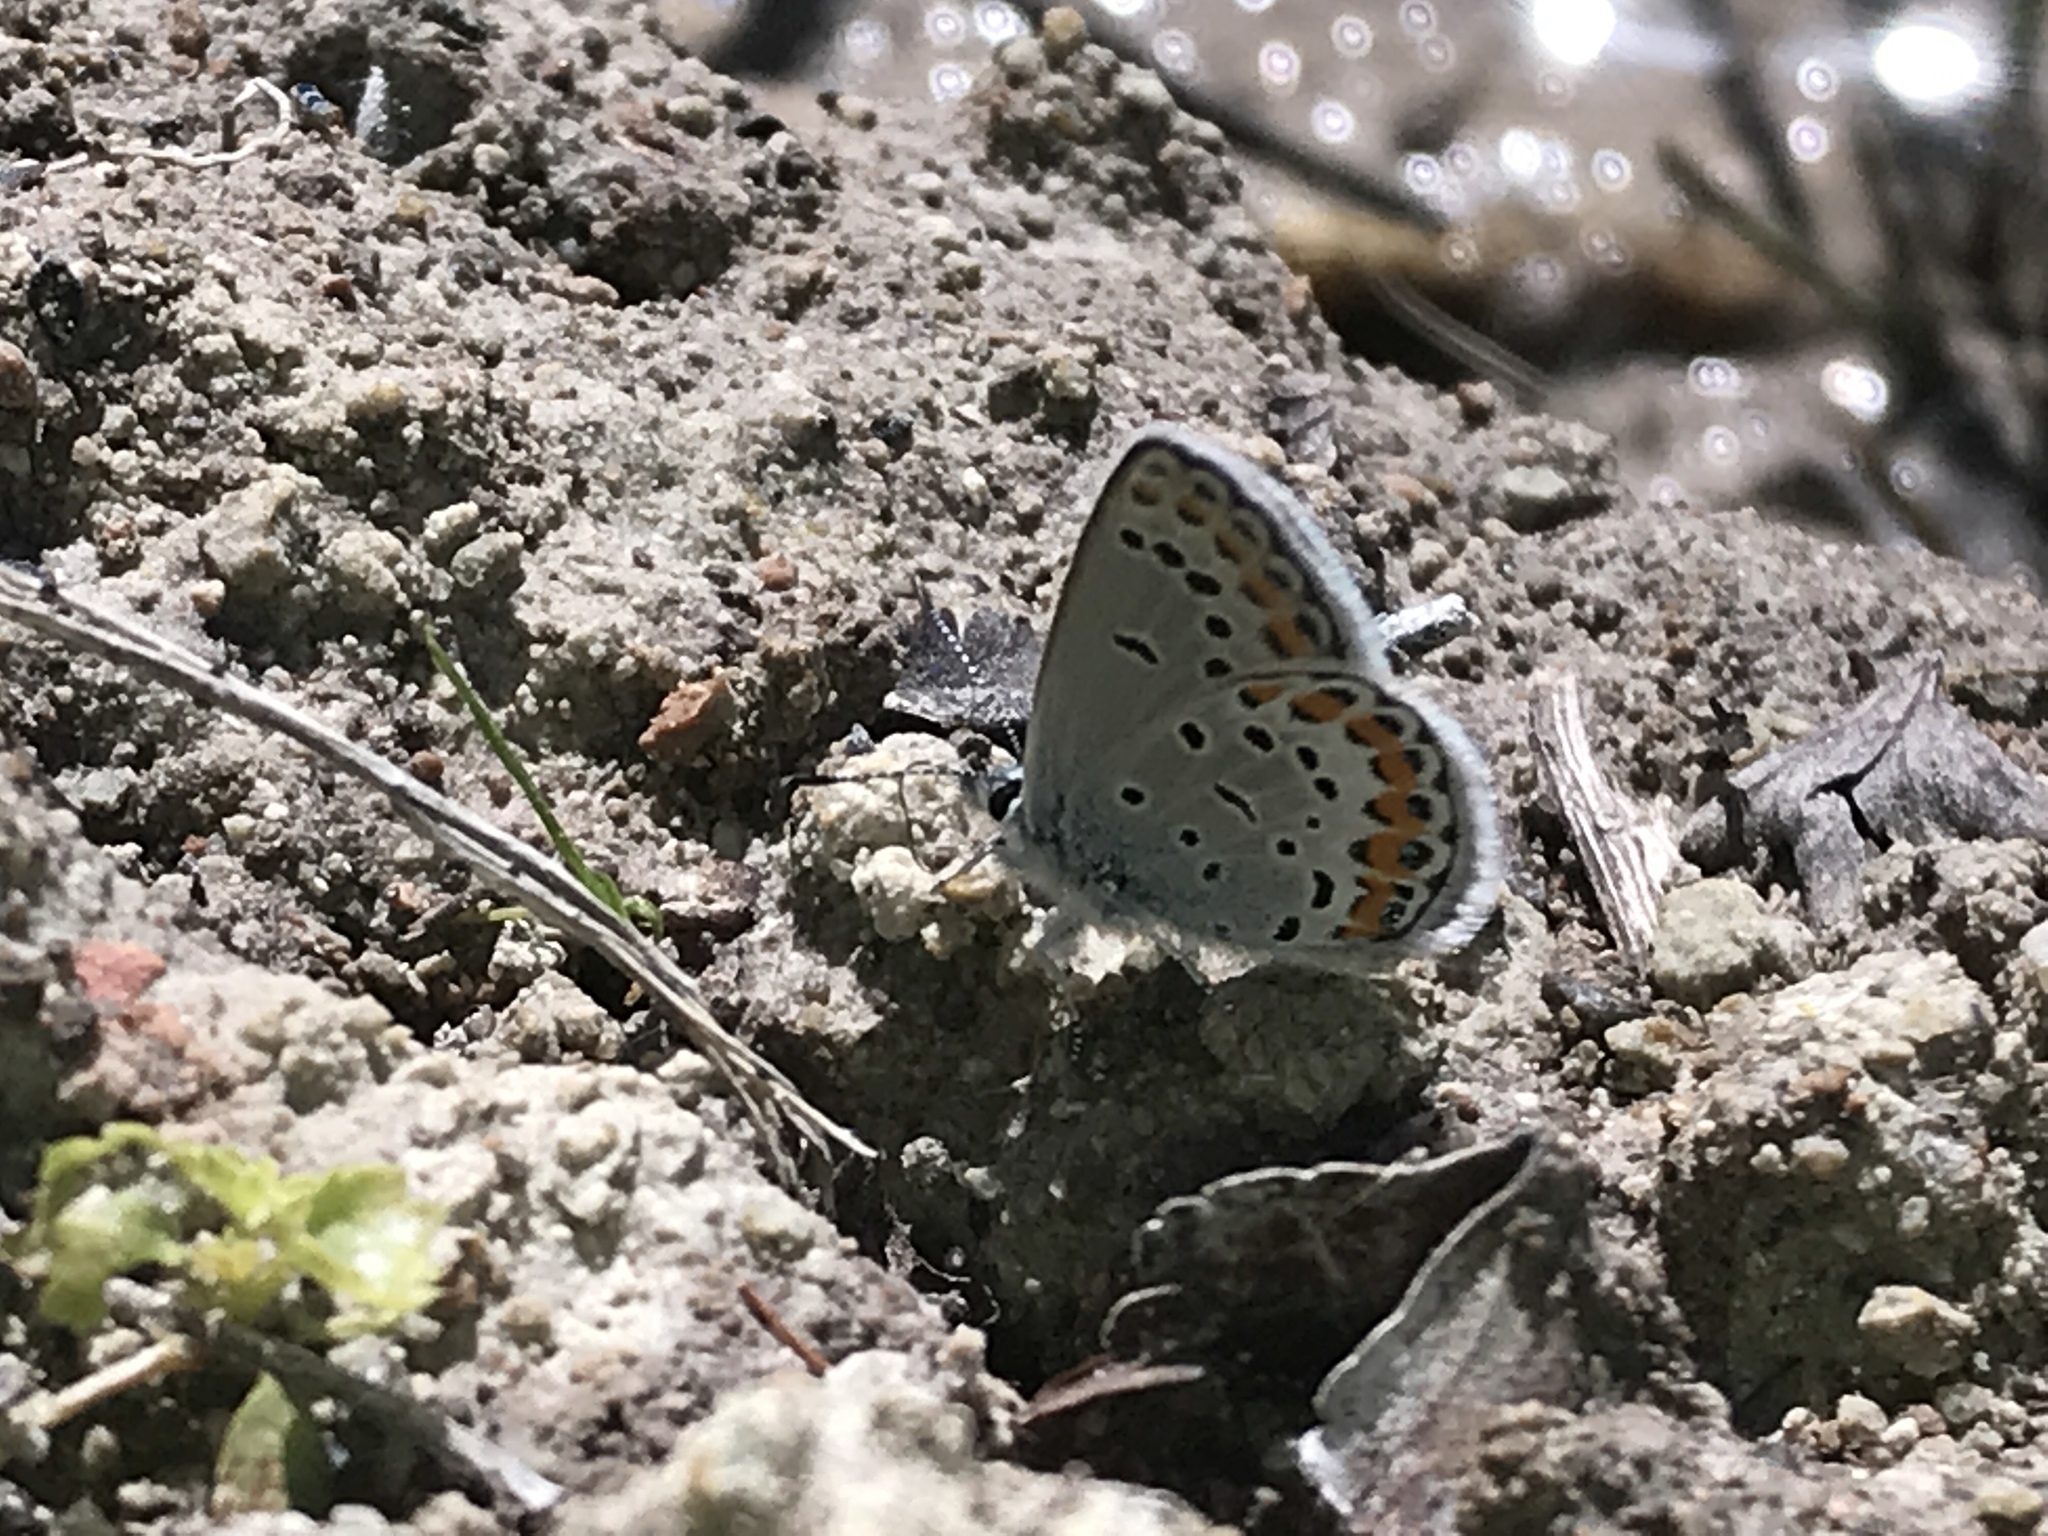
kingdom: Animalia
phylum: Arthropoda
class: Insecta
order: Lepidoptera
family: Lycaenidae
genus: Lycaeides
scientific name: Lycaeides melissa
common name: Melissa blue
